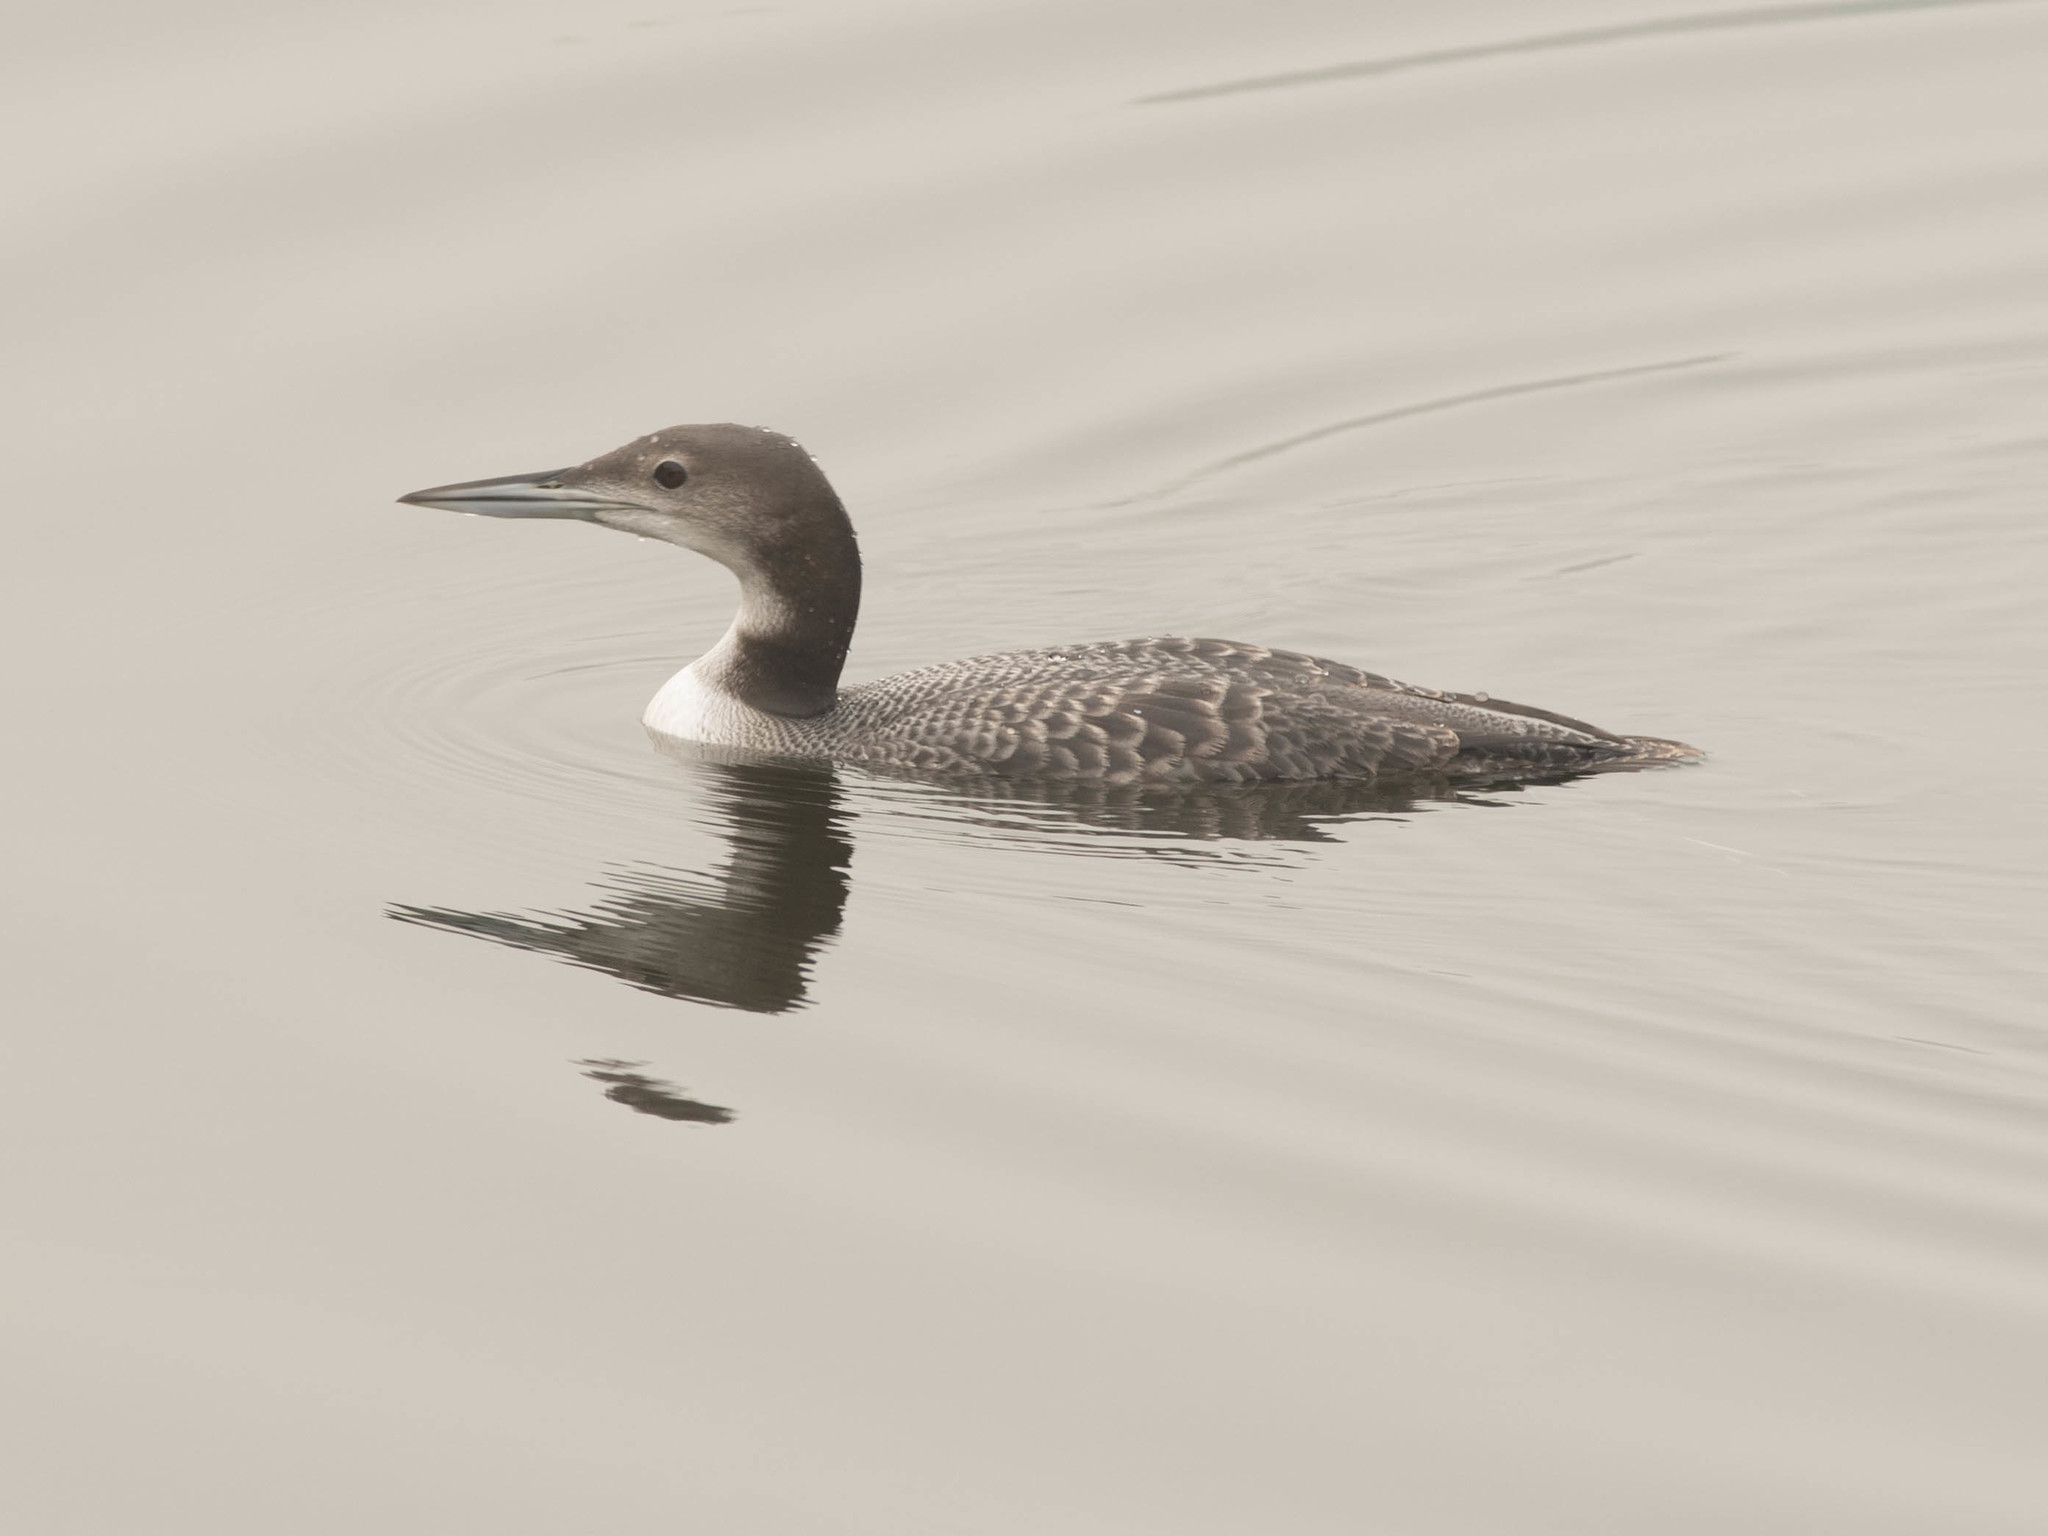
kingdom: Animalia
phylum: Chordata
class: Aves
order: Gaviiformes
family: Gaviidae
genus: Gavia
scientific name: Gavia immer
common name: Common loon
